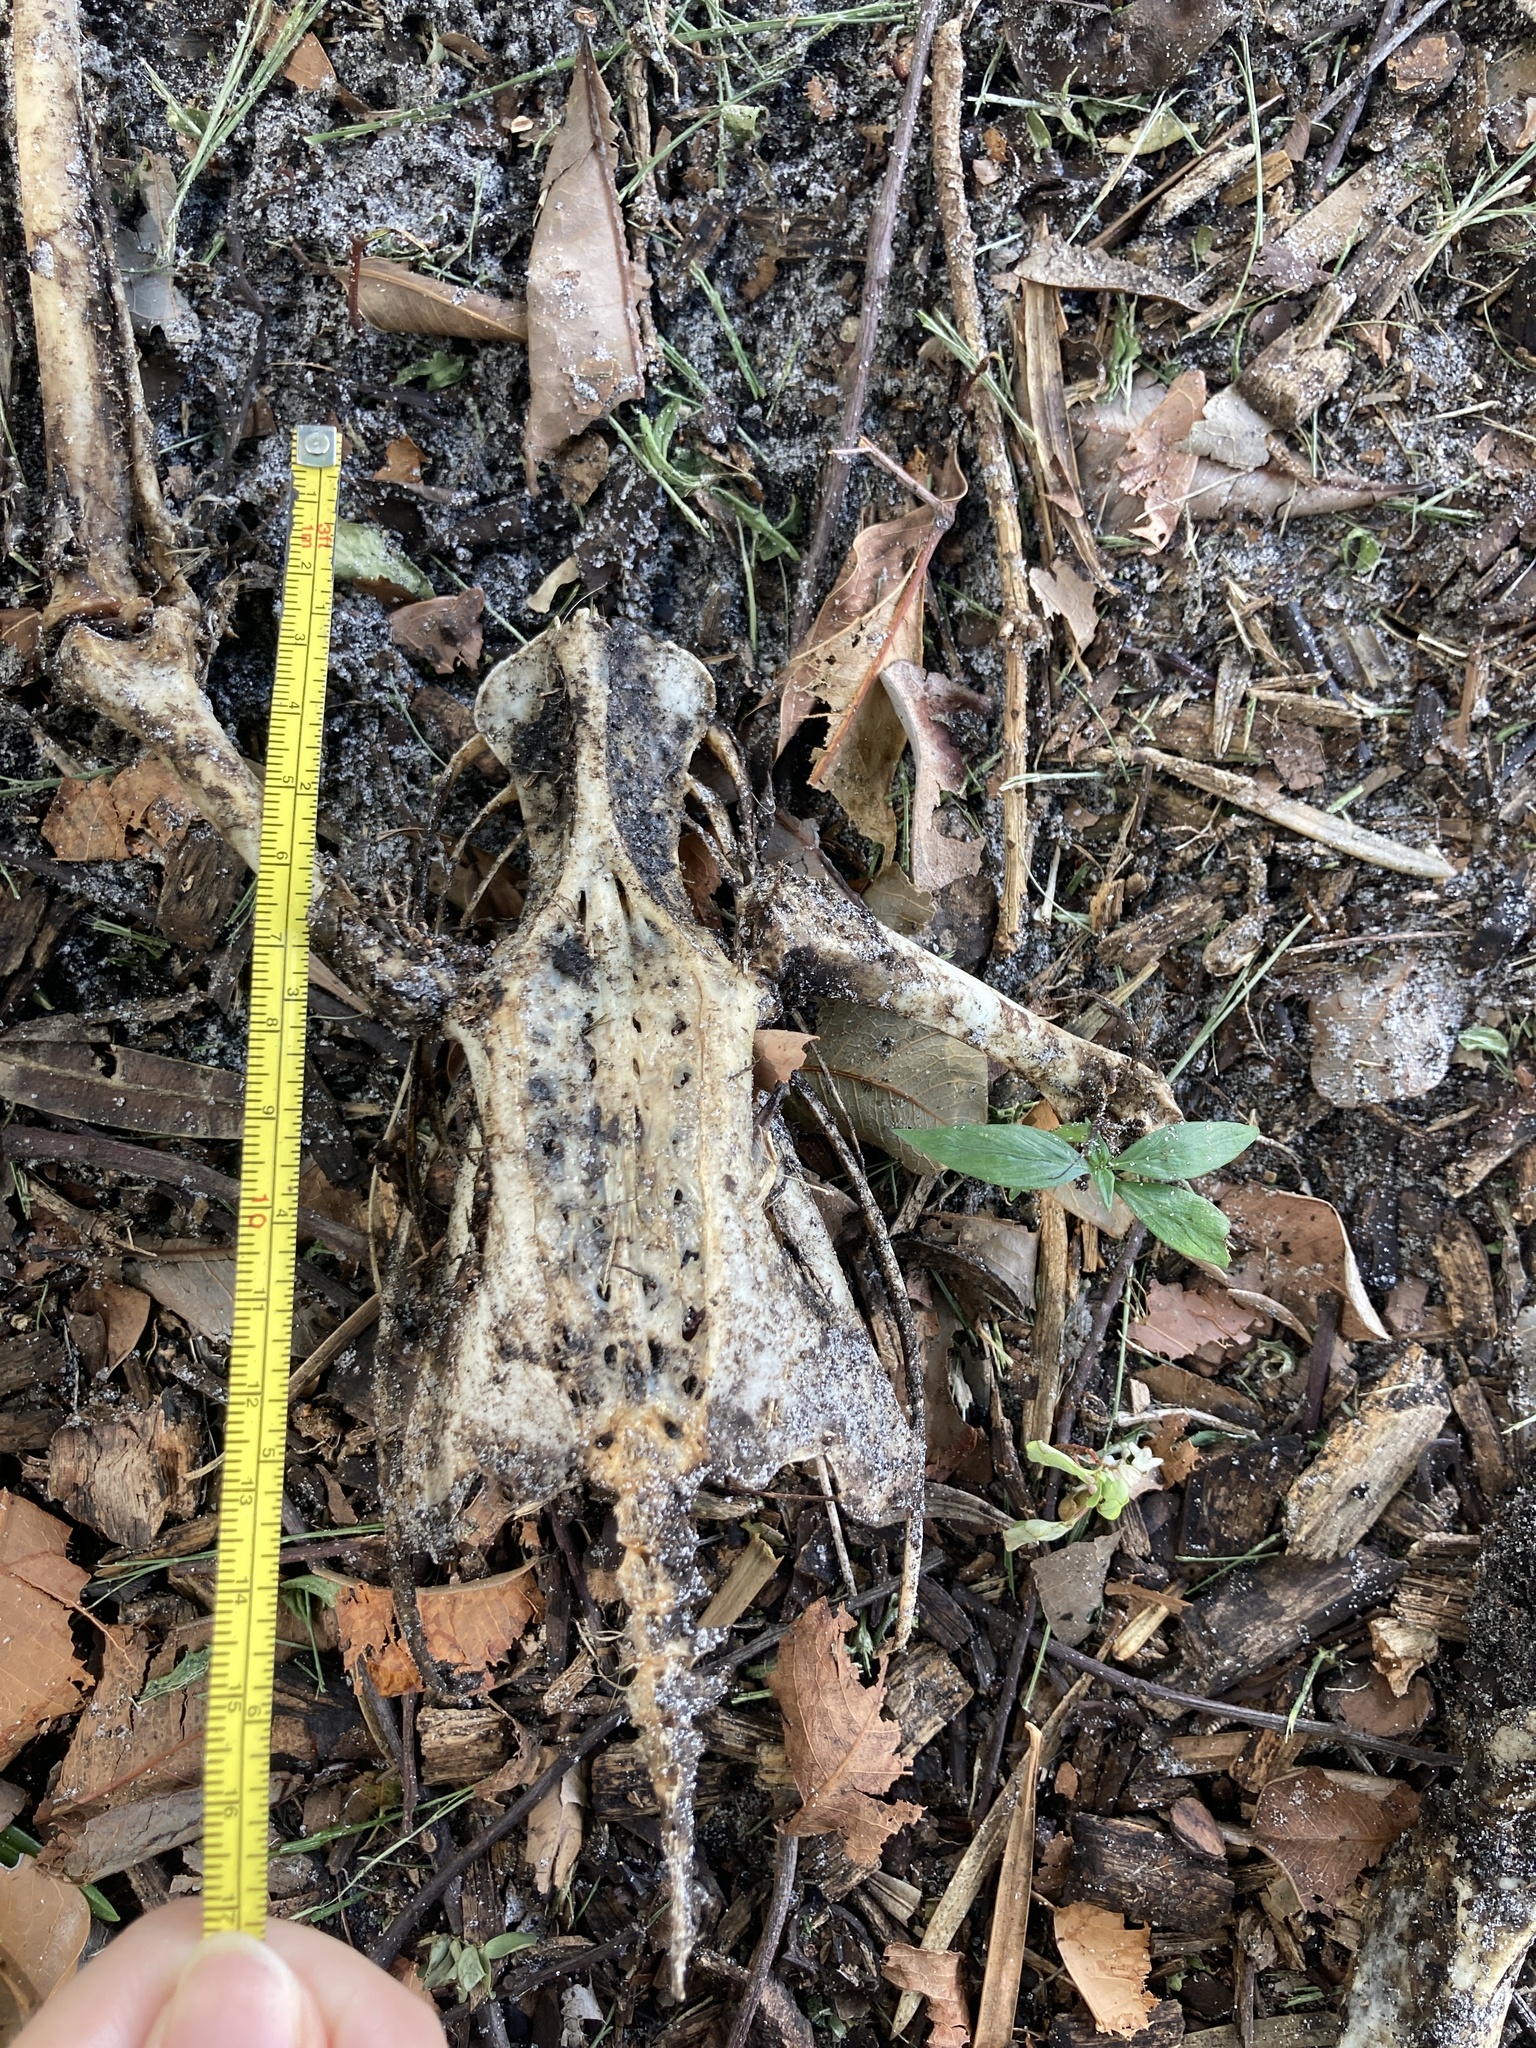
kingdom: Animalia
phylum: Chordata
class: Aves
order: Anseriformes
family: Anatidae
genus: Alopochen
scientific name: Alopochen aegyptiaca
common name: Egyptian goose
